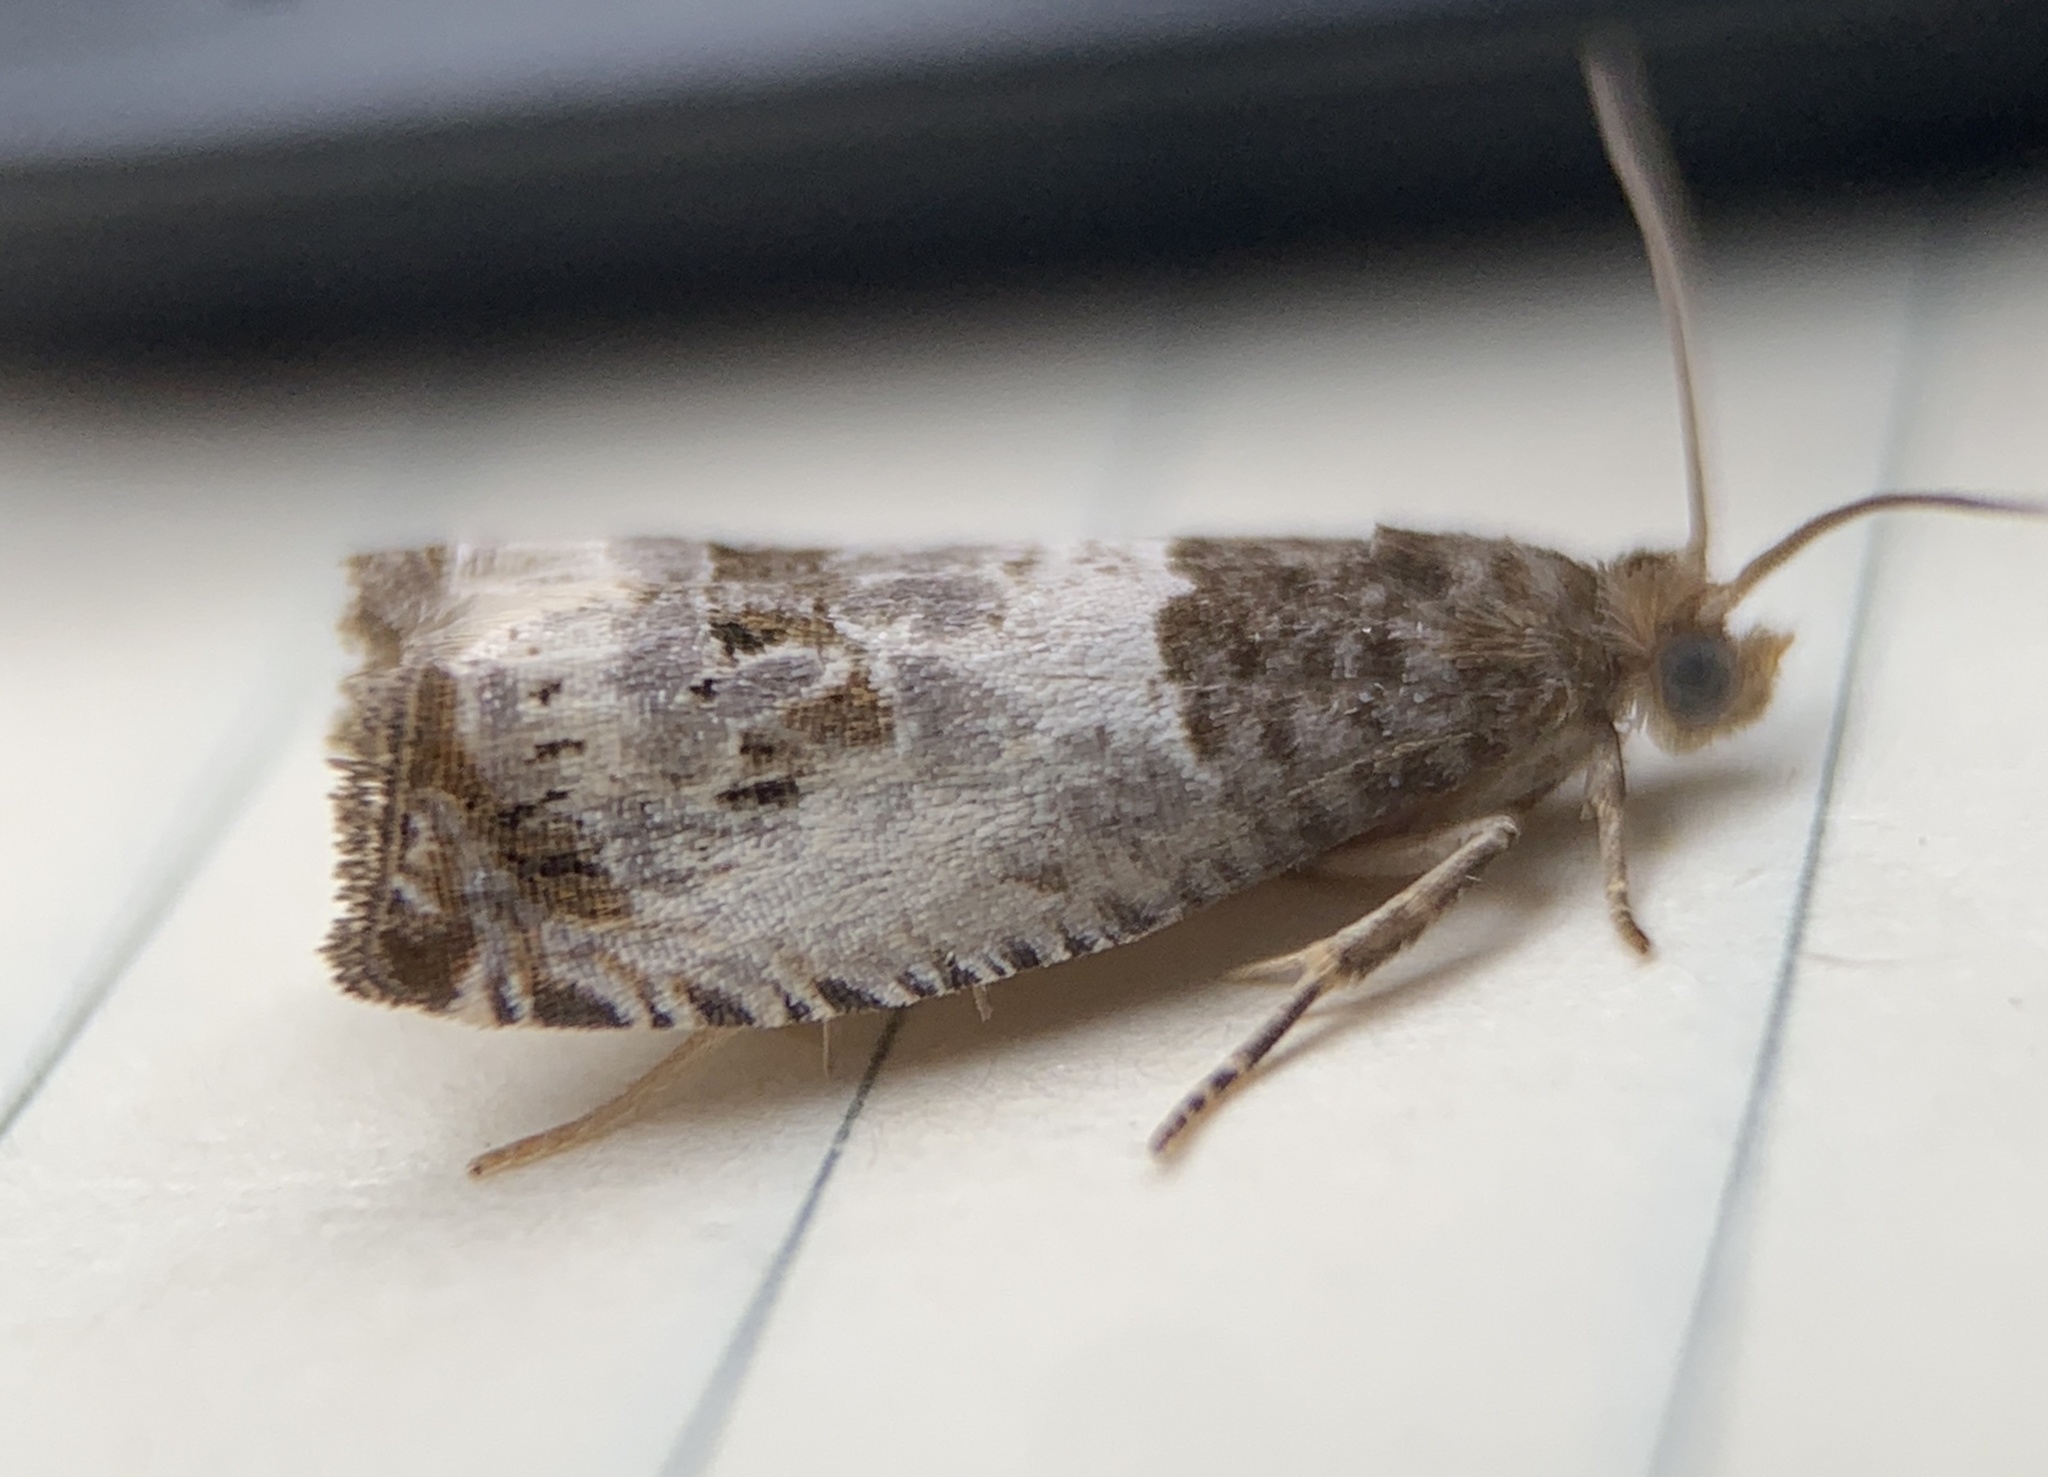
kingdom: Animalia
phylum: Arthropoda
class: Insecta
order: Lepidoptera
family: Tortricidae
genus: Notocelia
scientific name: Notocelia rosaecolana
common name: Common rose bell
